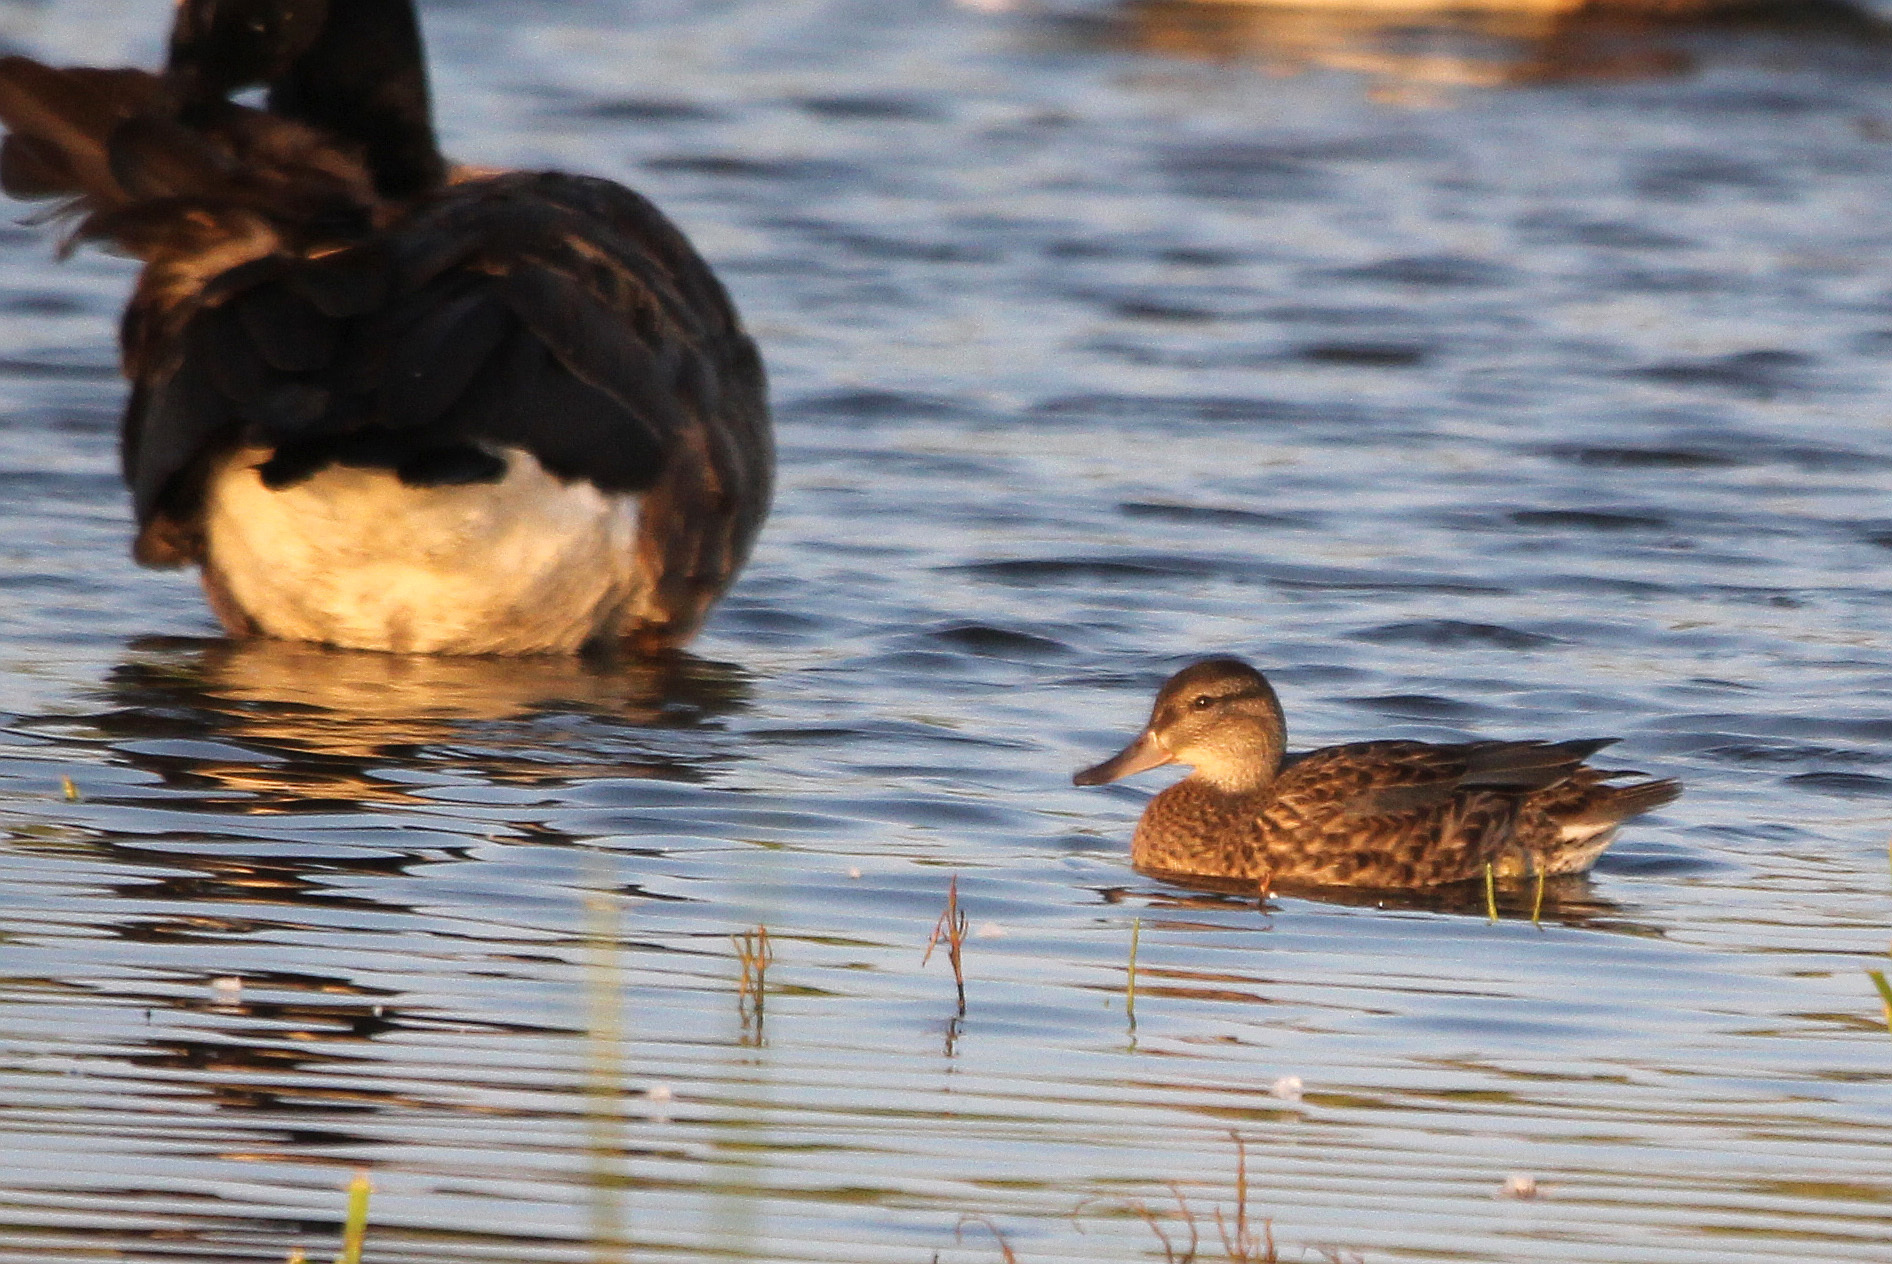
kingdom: Animalia
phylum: Chordata
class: Aves
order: Anseriformes
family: Anatidae
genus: Anas
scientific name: Anas crecca
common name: Eurasian teal
